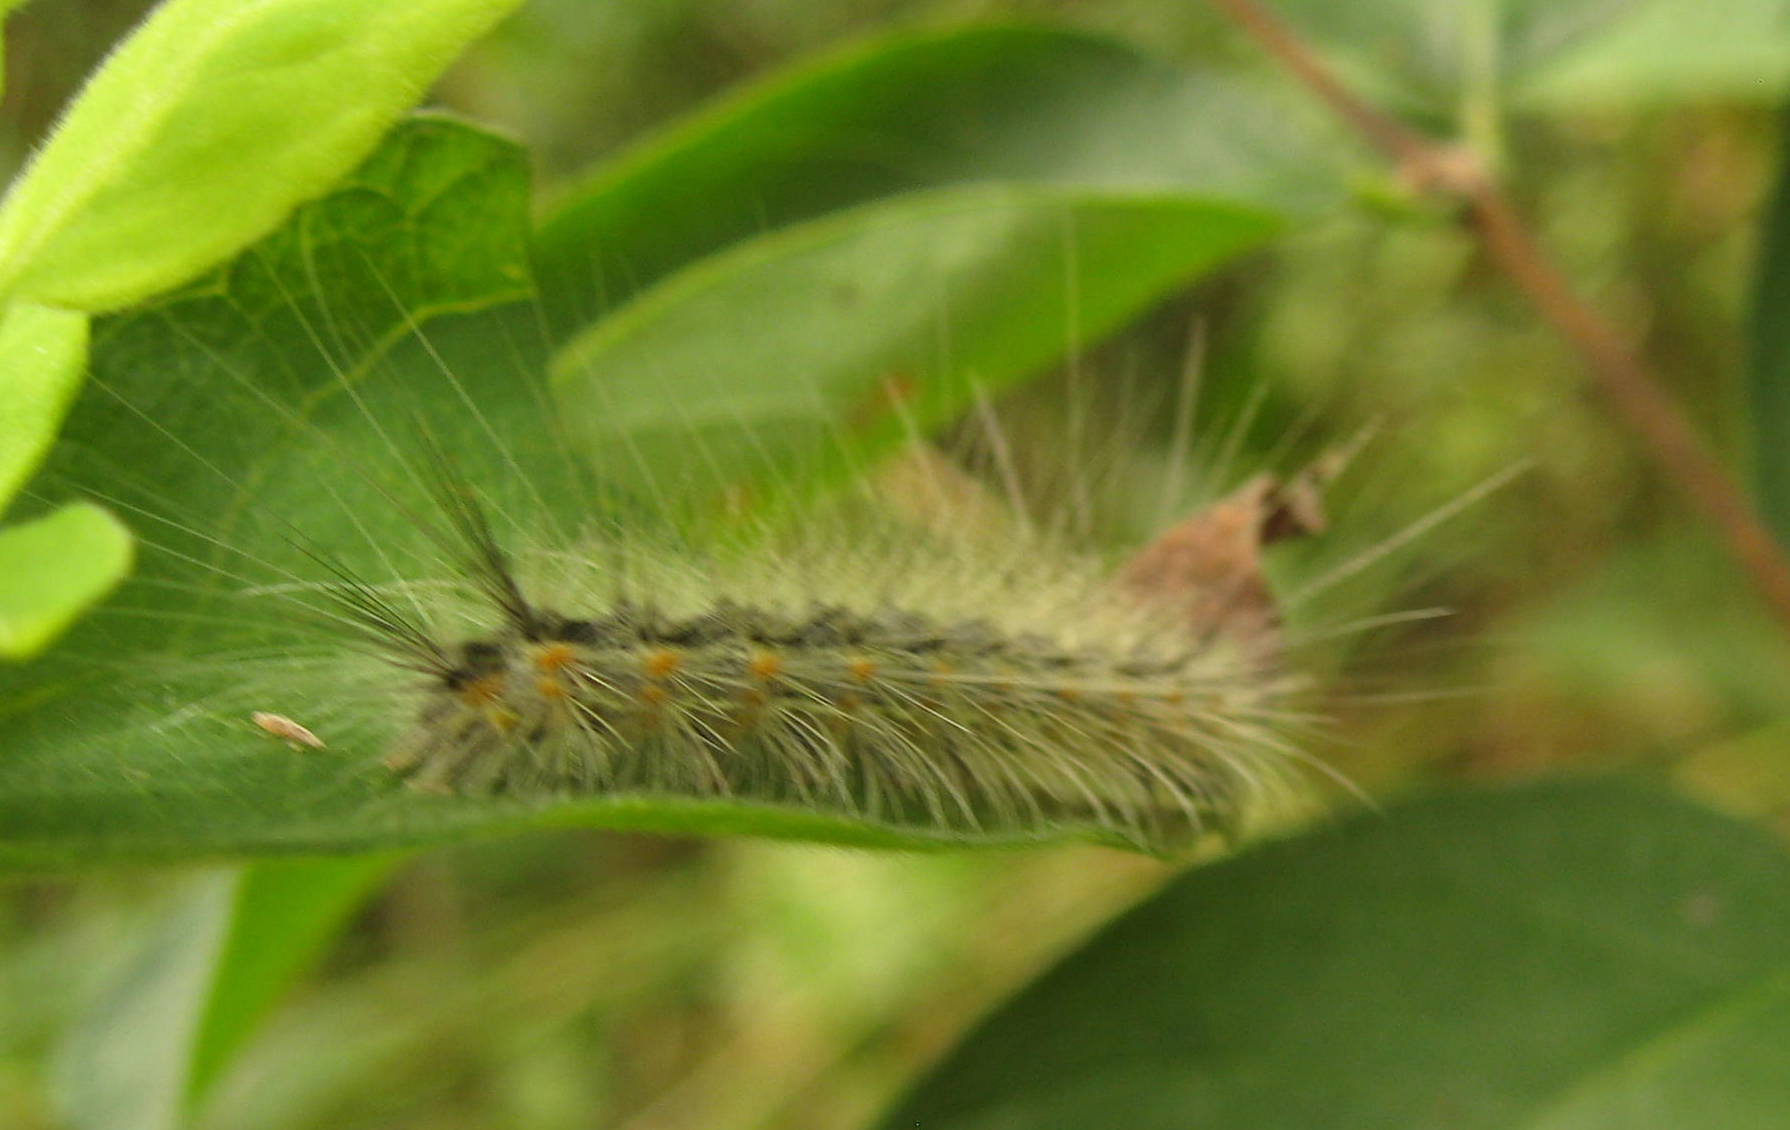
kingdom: Animalia
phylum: Arthropoda
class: Insecta
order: Lepidoptera
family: Erebidae
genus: Hyphantria
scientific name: Hyphantria cunea
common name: American white moth
